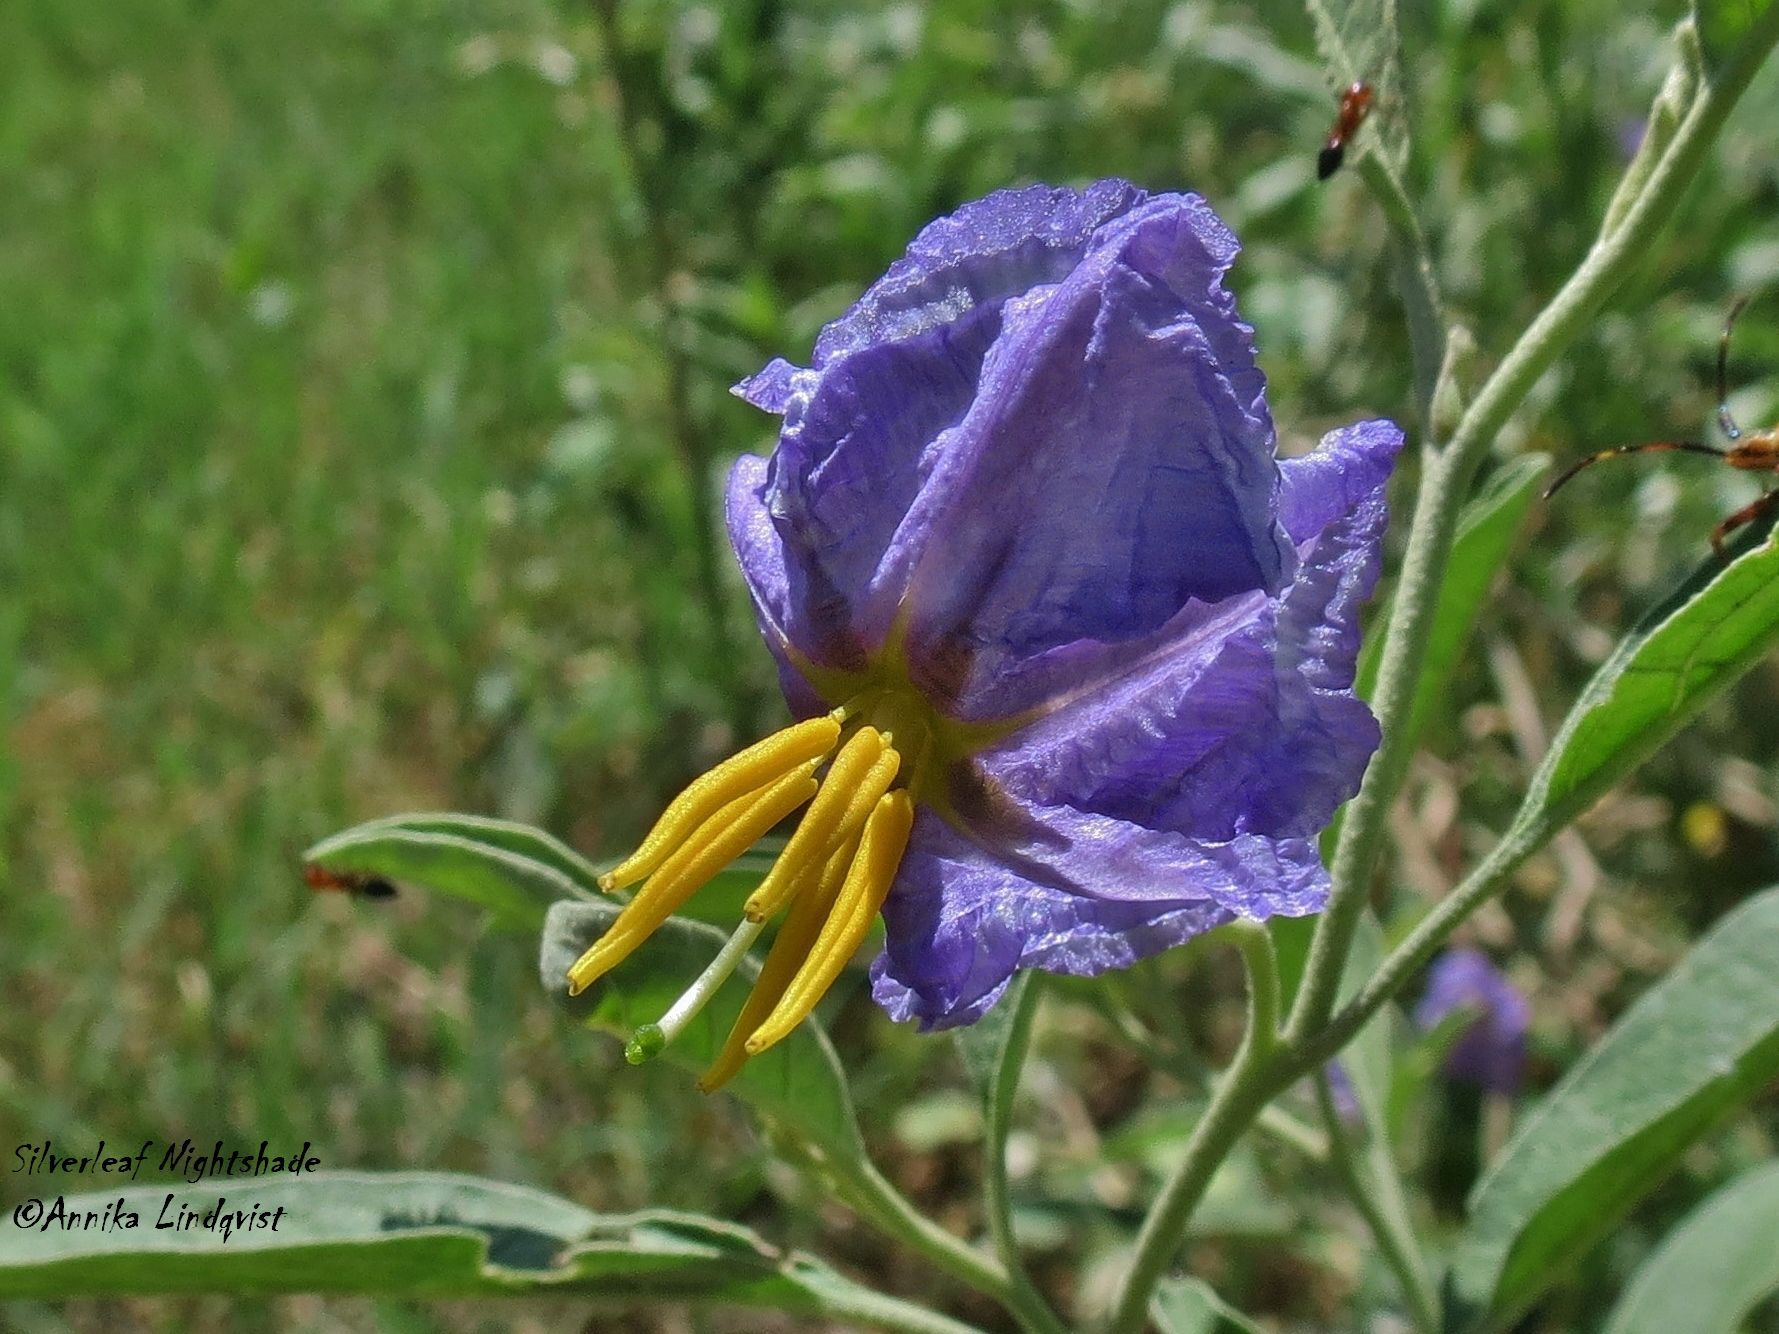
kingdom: Plantae
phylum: Tracheophyta
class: Magnoliopsida
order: Solanales
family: Solanaceae
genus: Solanum
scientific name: Solanum elaeagnifolium
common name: Silverleaf nightshade
